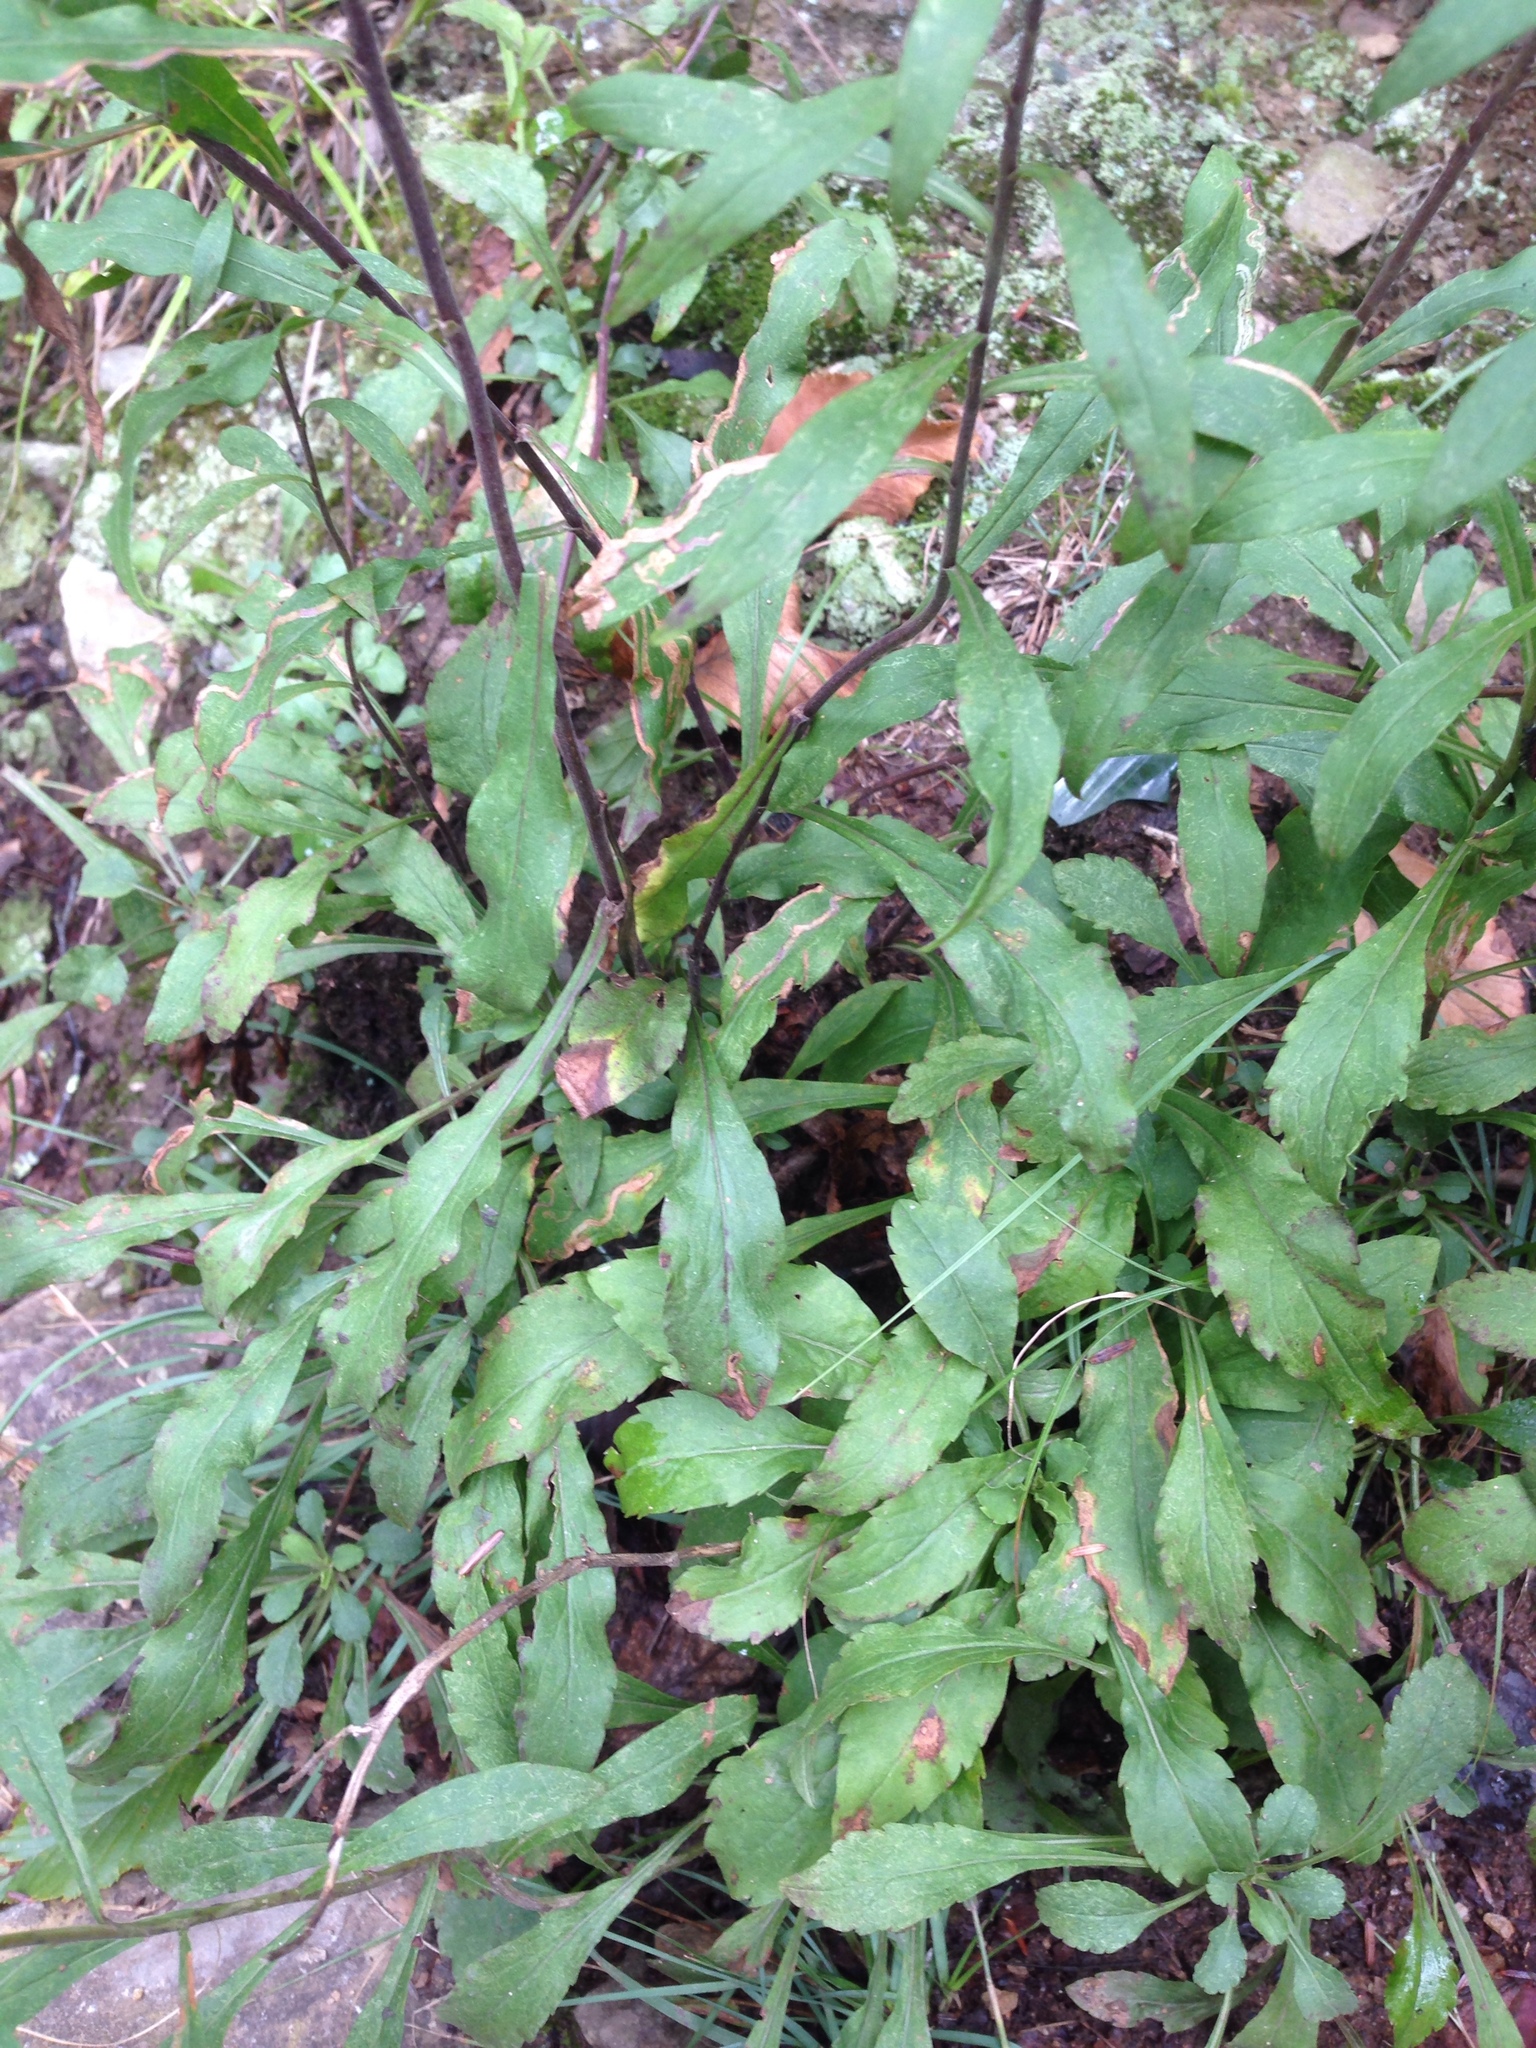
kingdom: Plantae
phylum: Tracheophyta
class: Magnoliopsida
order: Asterales
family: Asteraceae
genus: Solidago
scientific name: Solidago caesia
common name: Woodland goldenrod
